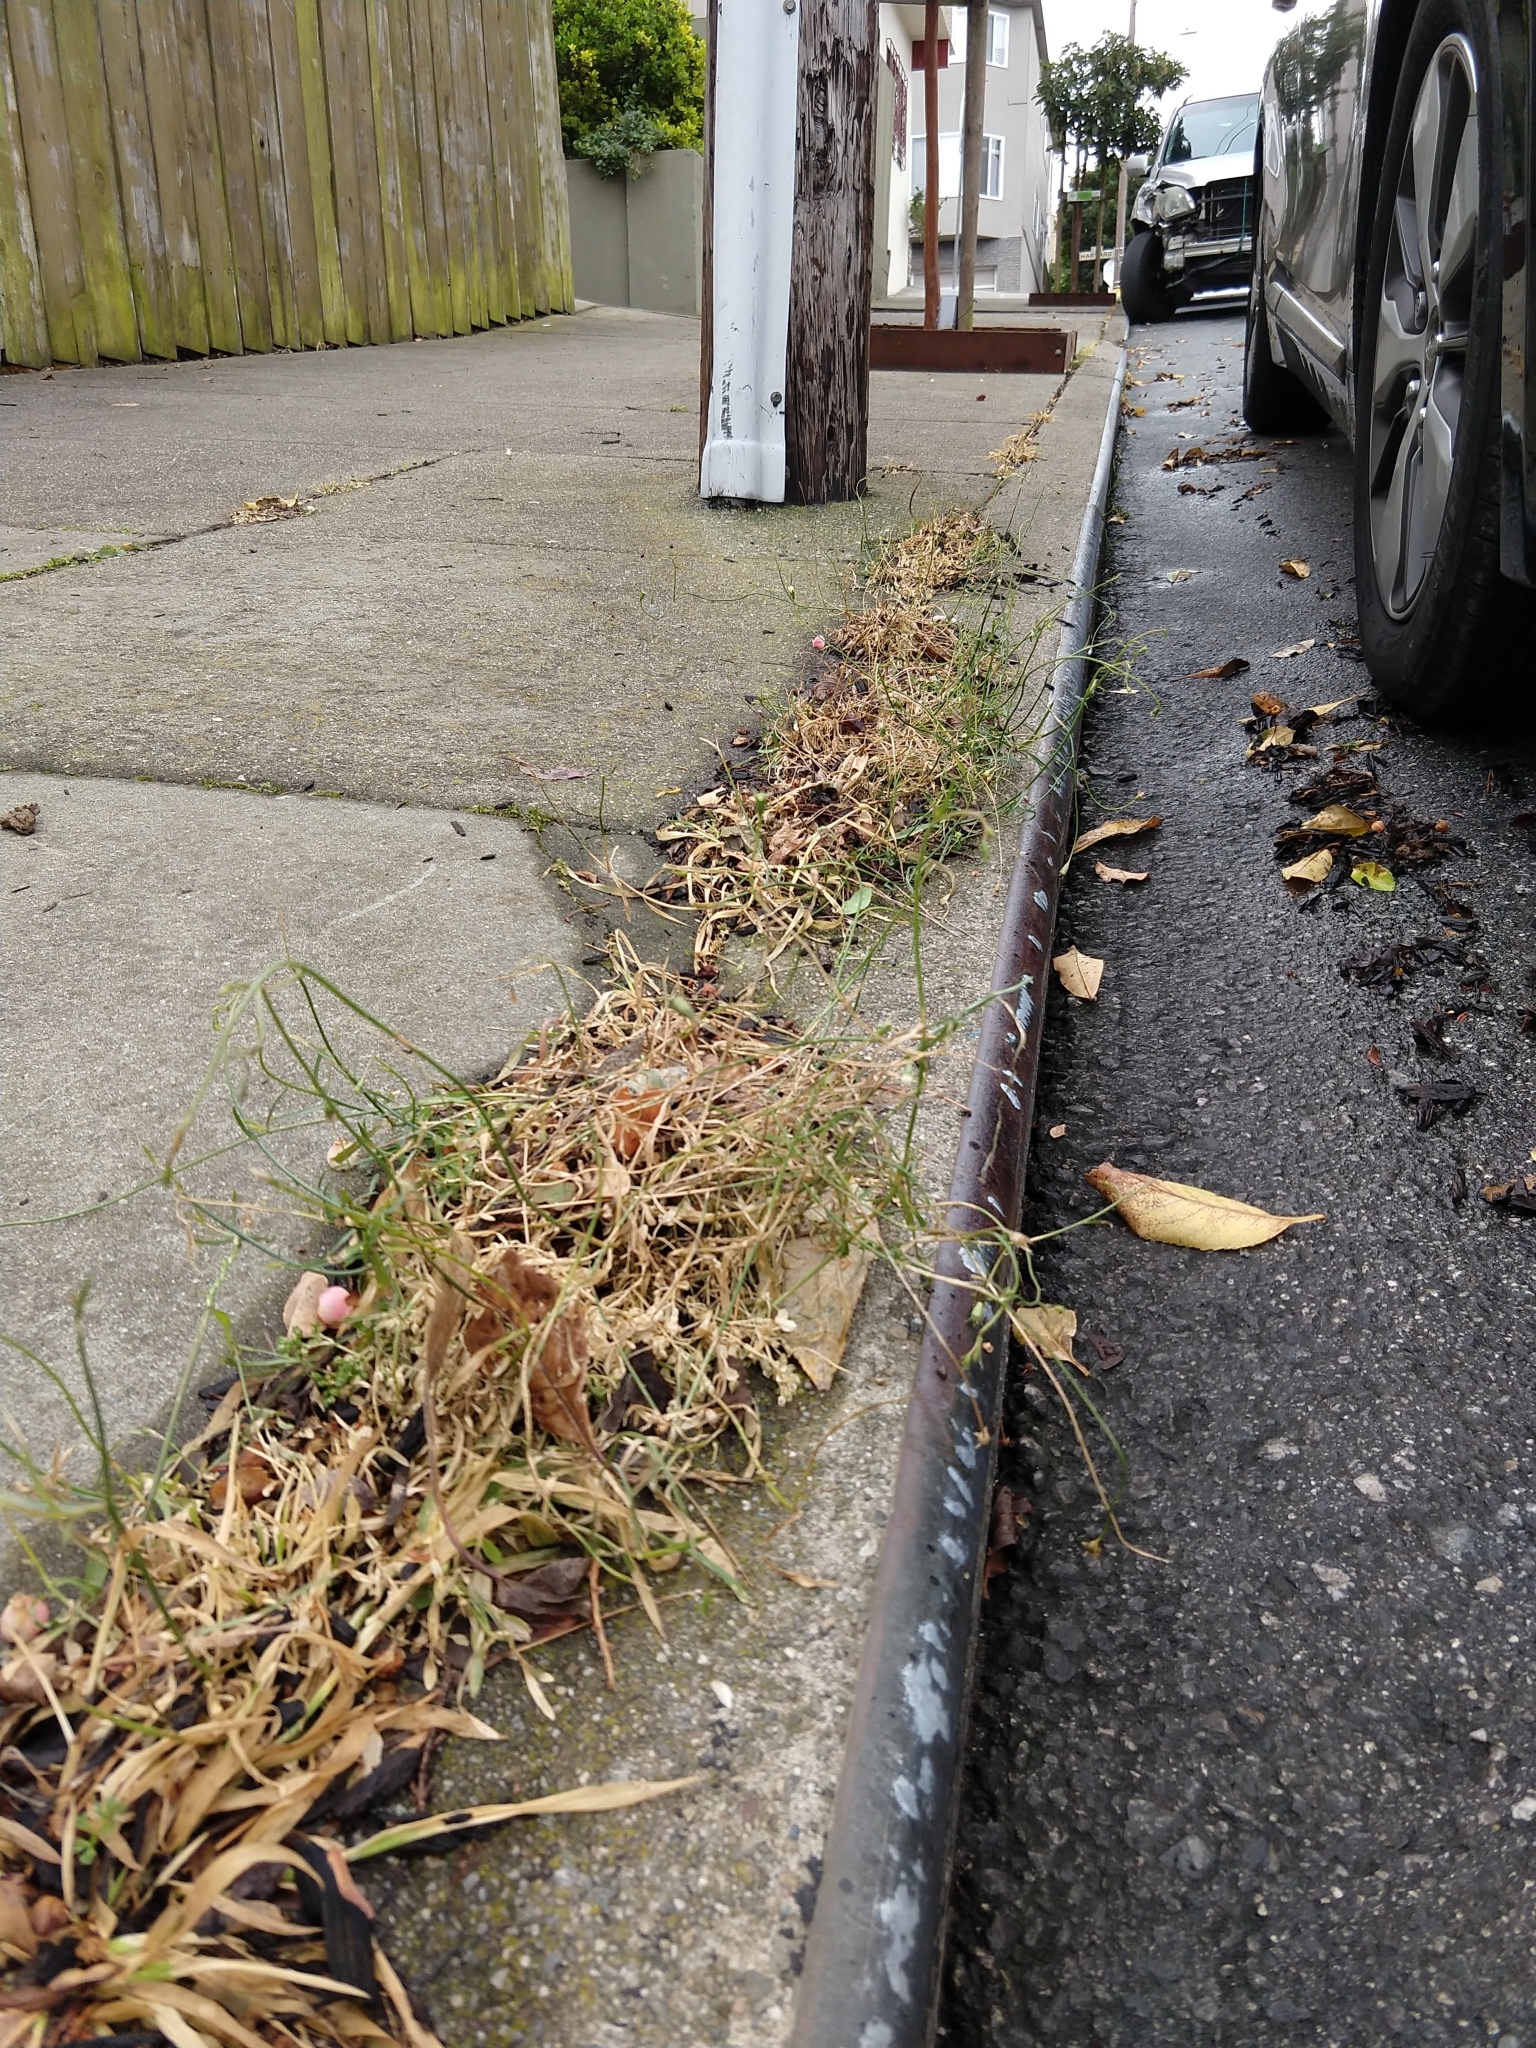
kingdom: Plantae
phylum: Tracheophyta
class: Magnoliopsida
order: Asterales
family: Campanulaceae
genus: Wahlenbergia
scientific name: Wahlenbergia marginata
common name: Southern rockbell
